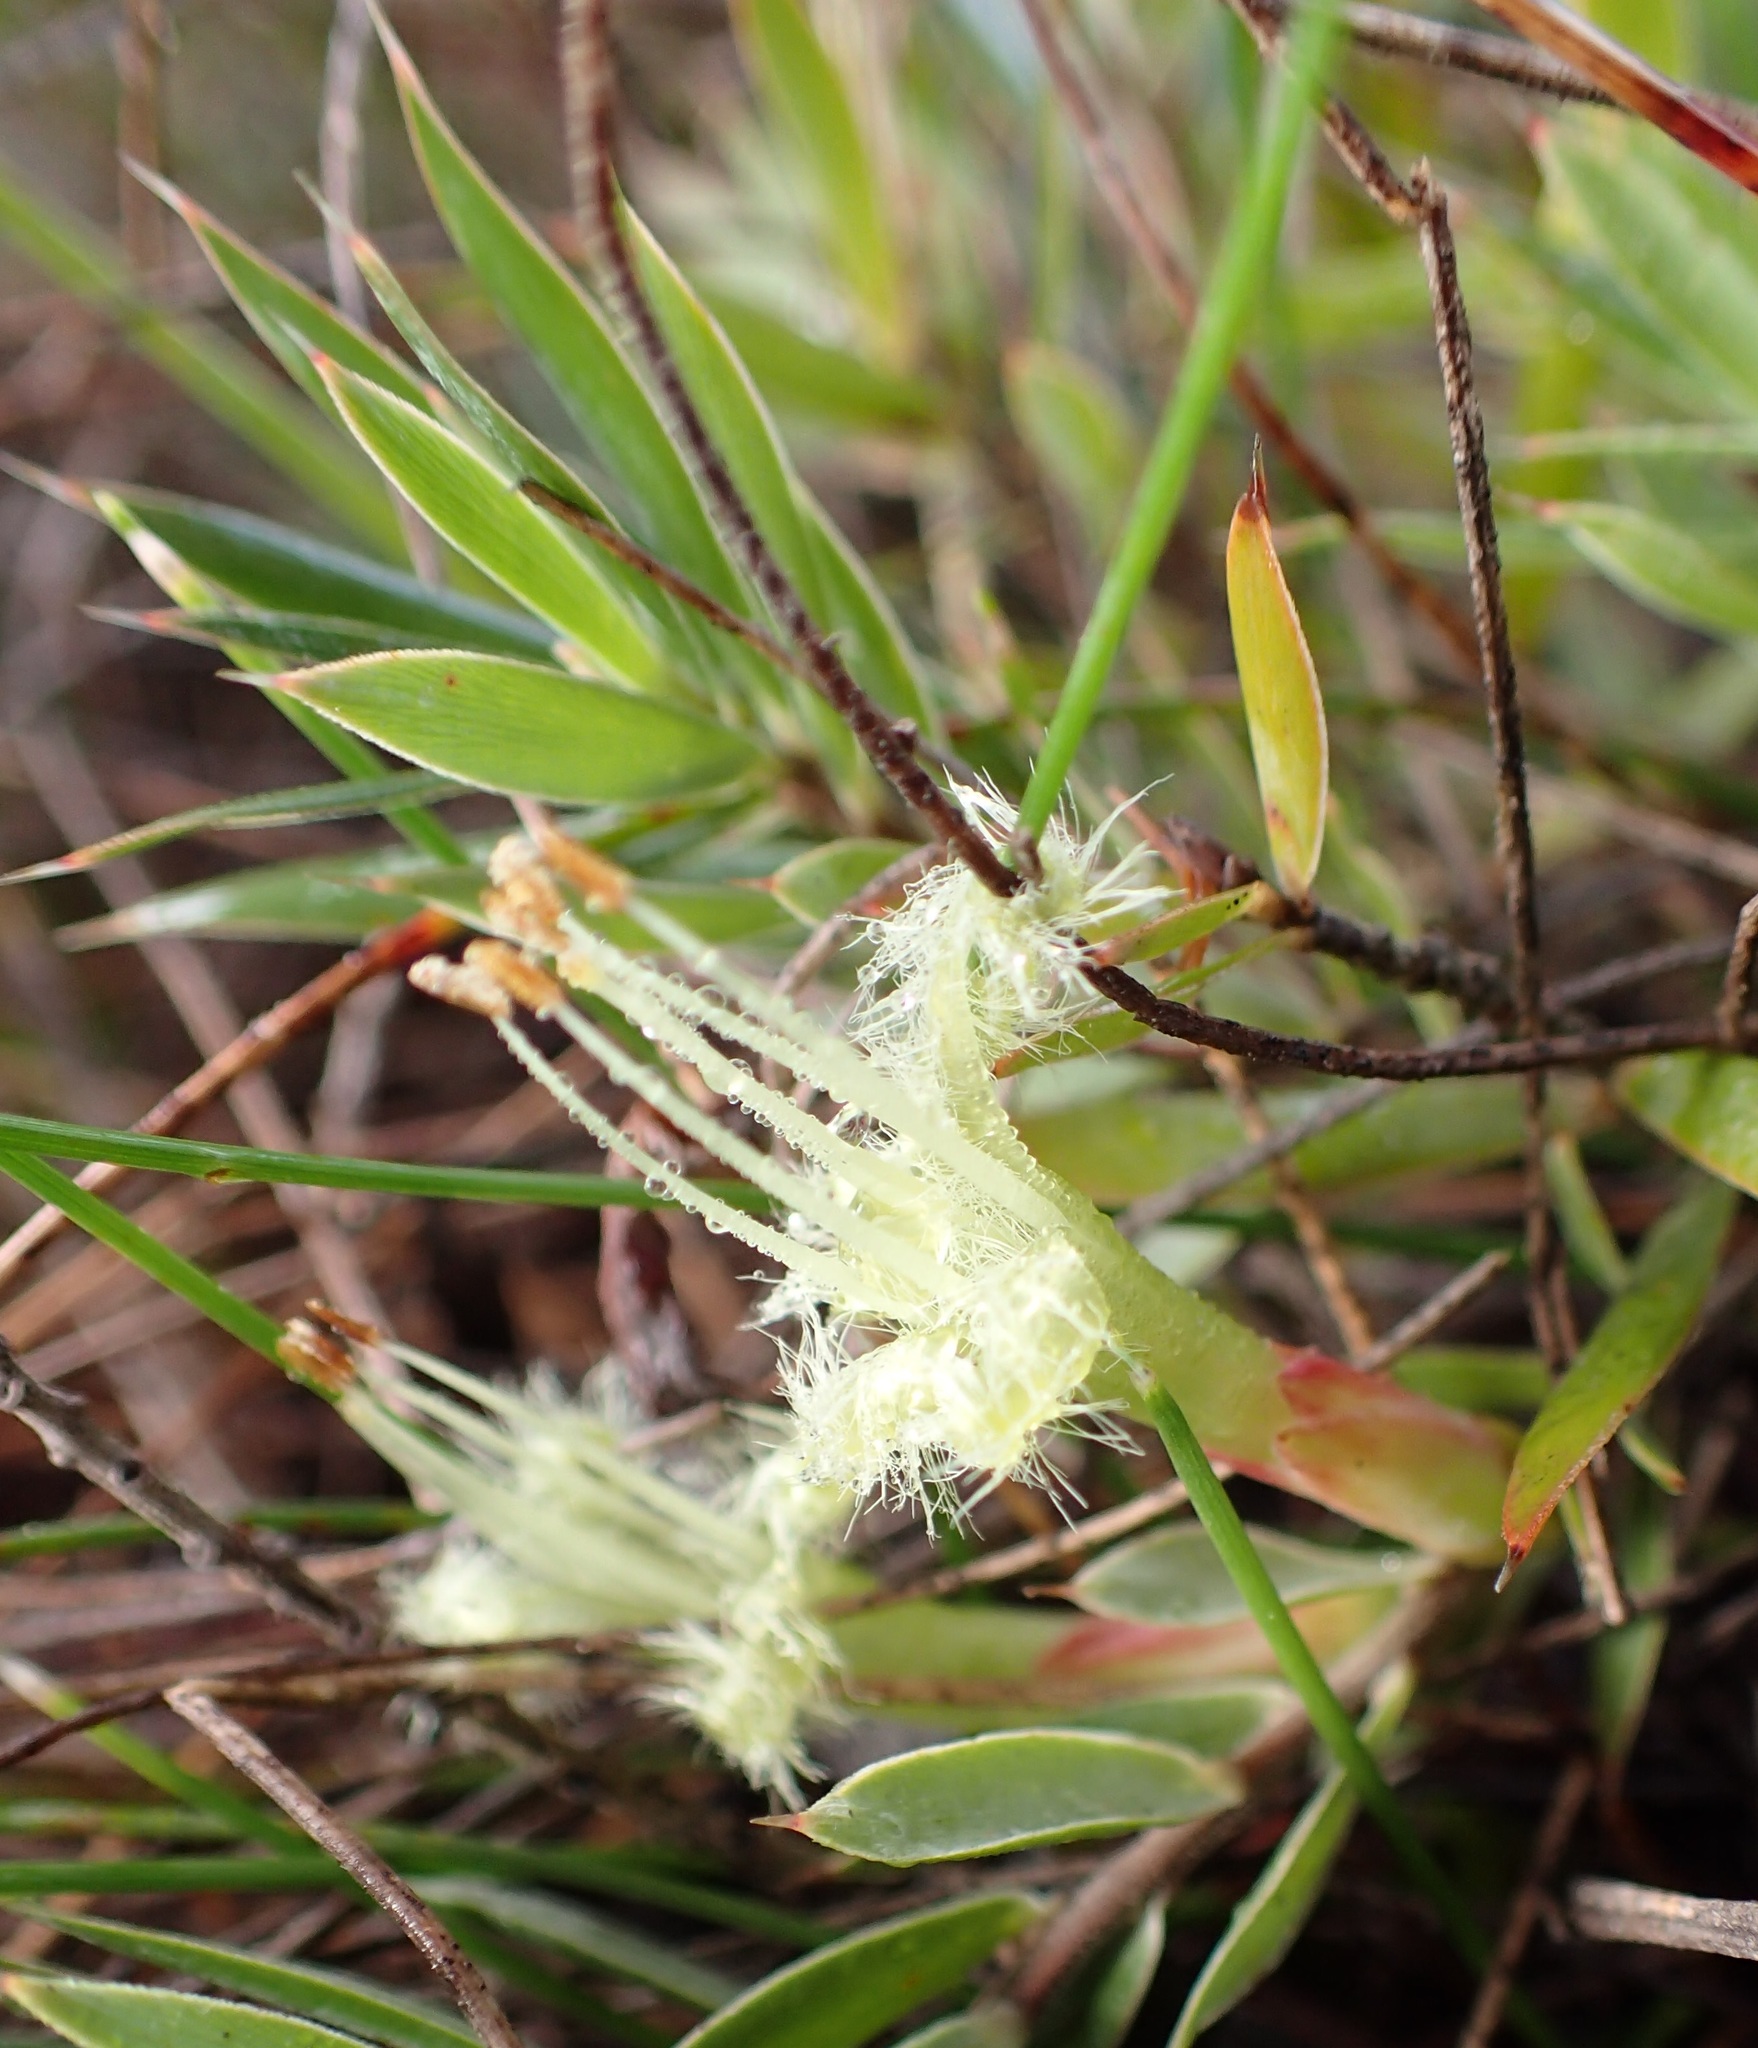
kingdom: Plantae
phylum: Tracheophyta
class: Magnoliopsida
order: Ericales
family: Ericaceae
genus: Styphelia
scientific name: Styphelia adscendens
